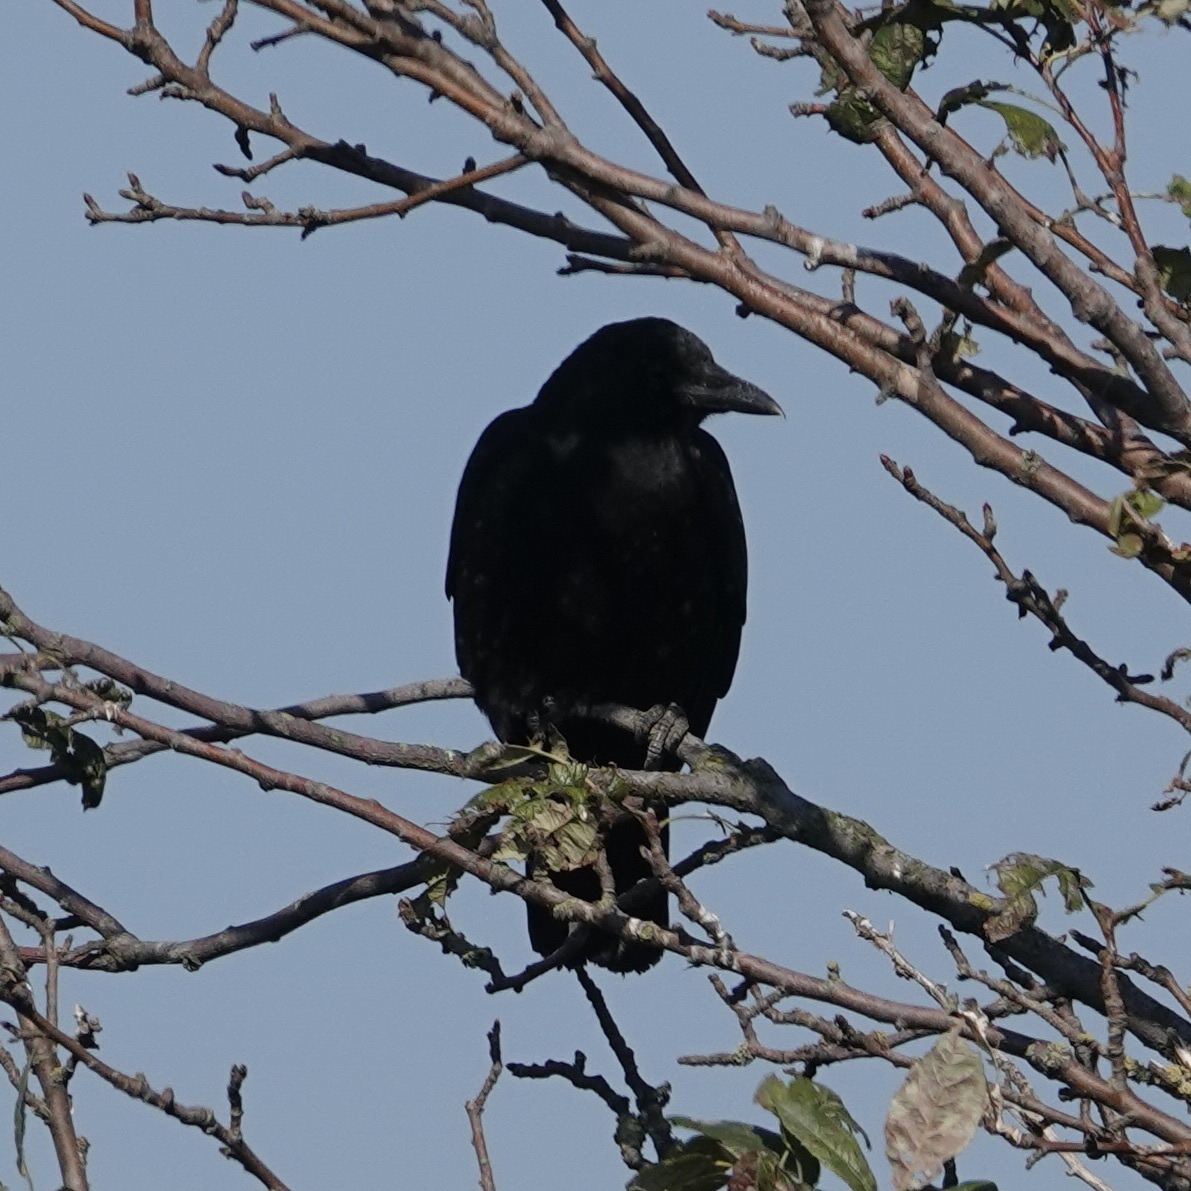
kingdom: Animalia
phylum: Chordata
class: Aves
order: Passeriformes
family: Corvidae
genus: Corvus
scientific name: Corvus brachyrhynchos
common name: American crow
